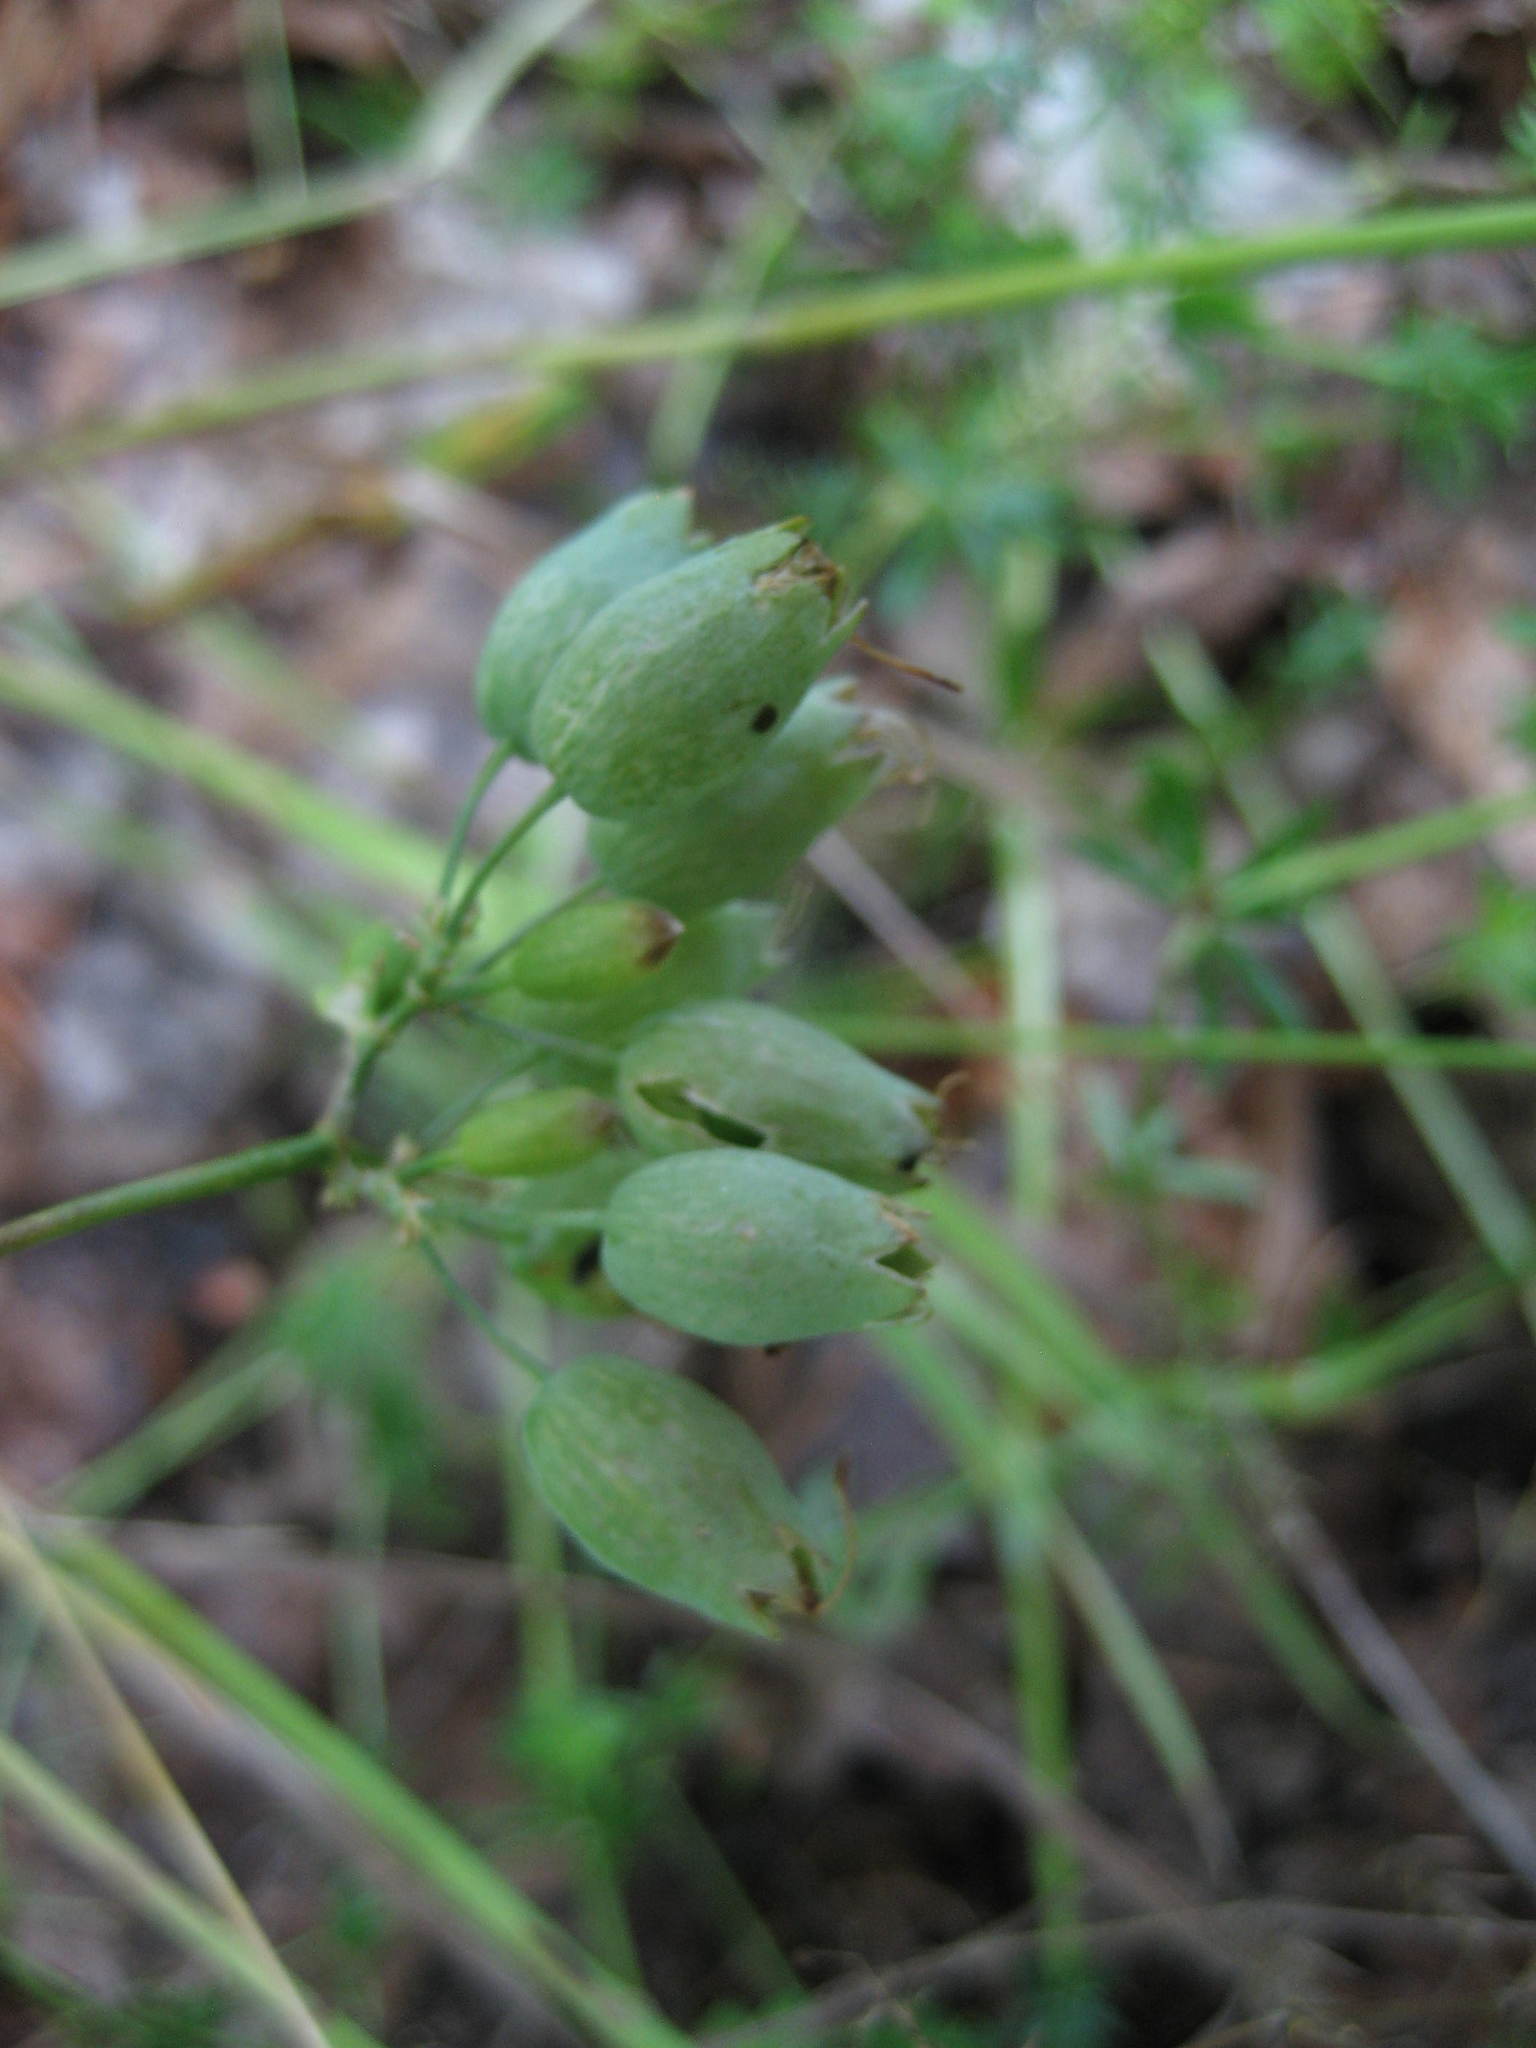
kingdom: Plantae
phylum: Tracheophyta
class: Magnoliopsida
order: Caryophyllales
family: Caryophyllaceae
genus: Silene
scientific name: Silene vulgaris
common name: Bladder campion
